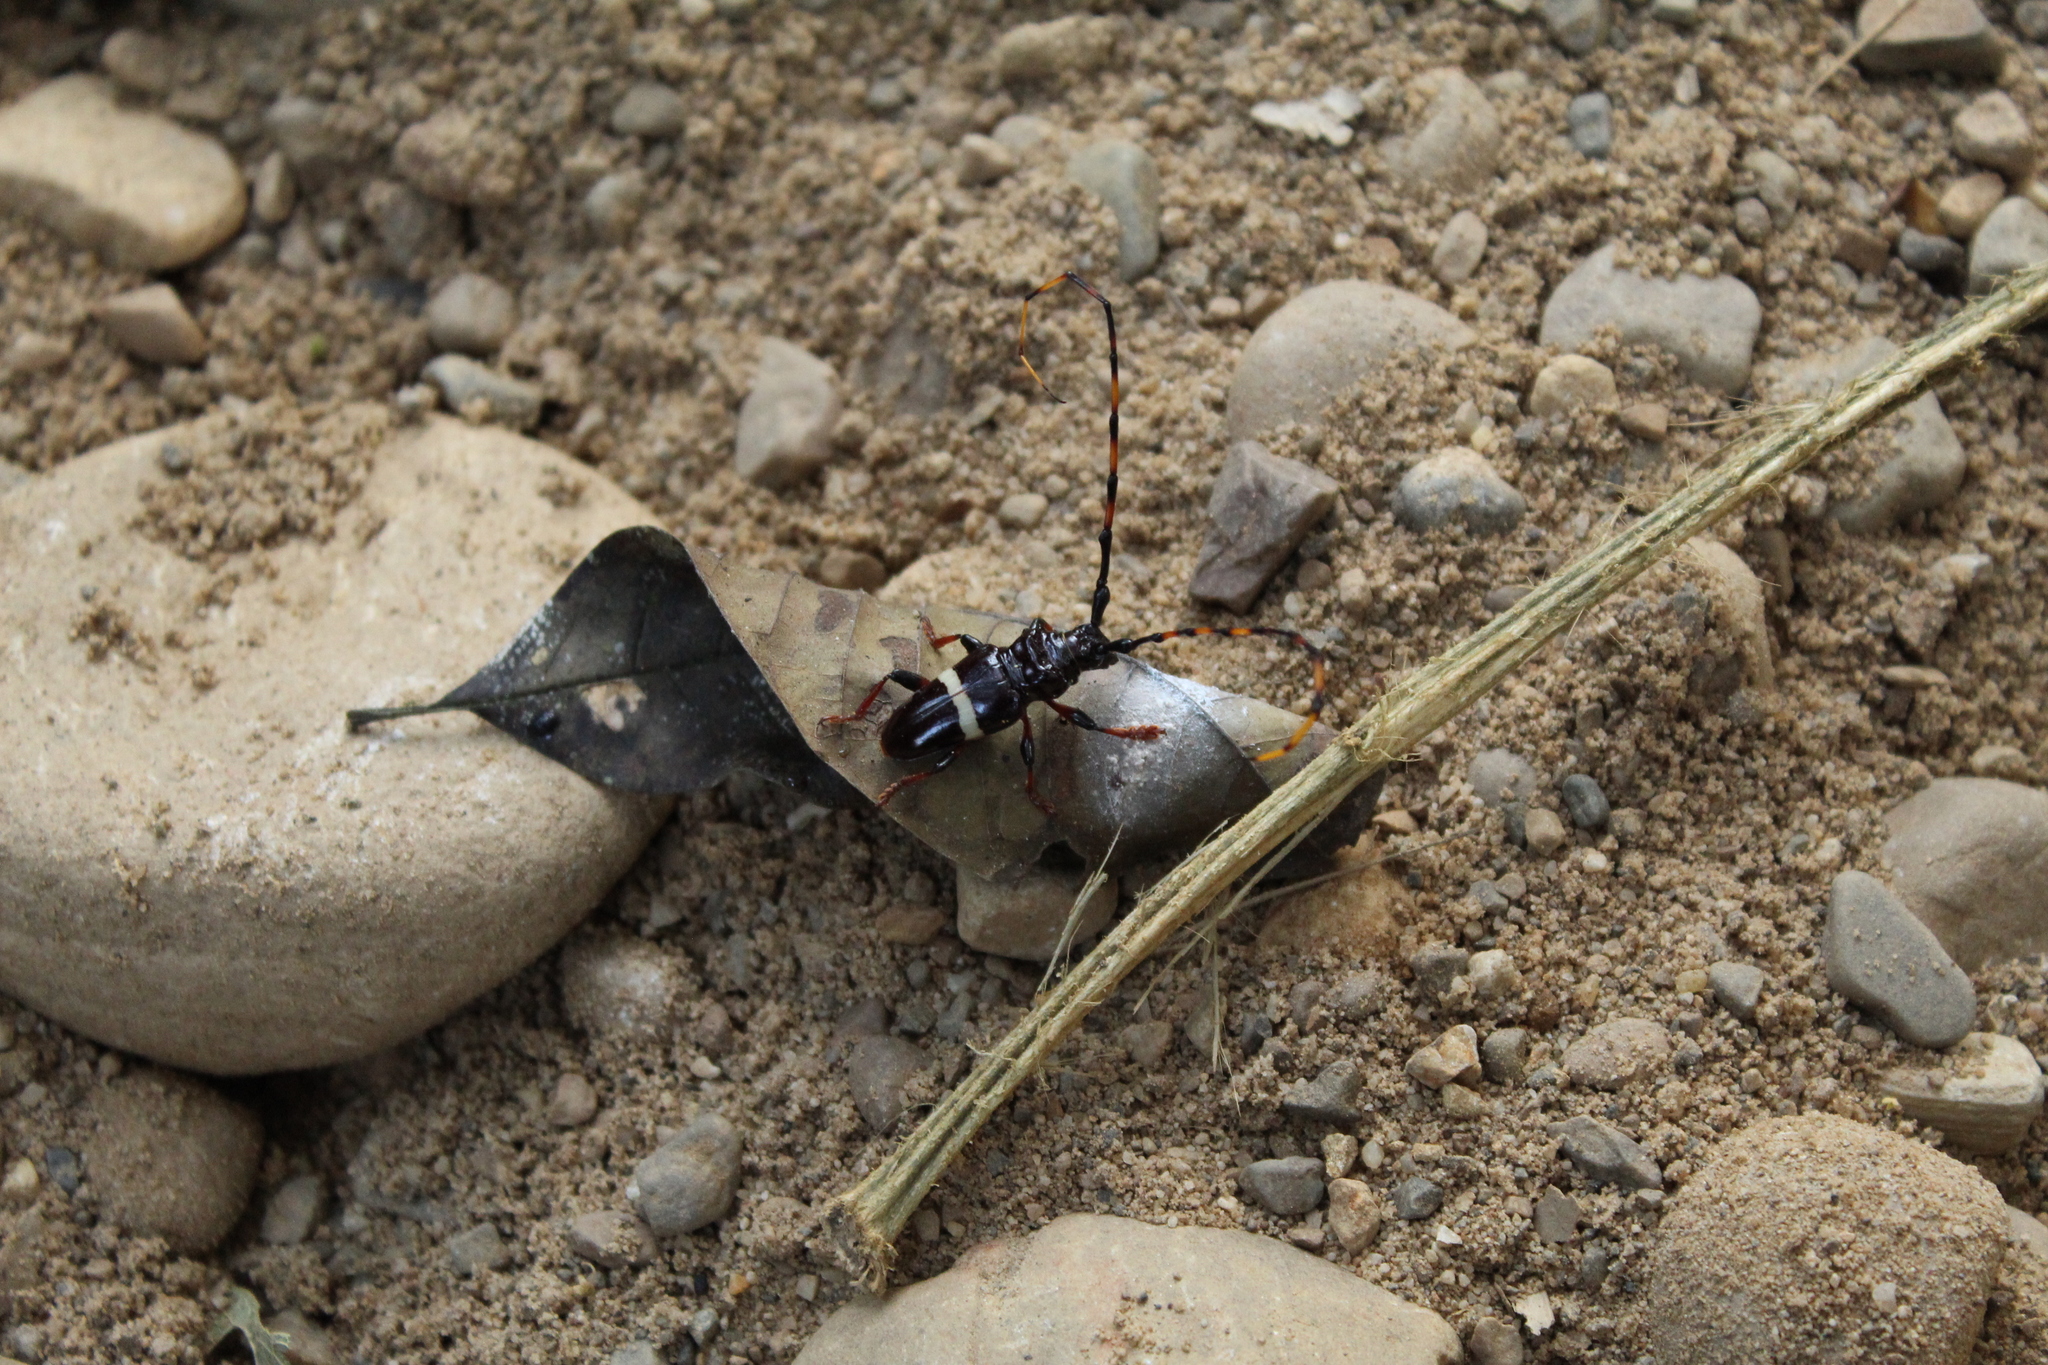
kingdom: Animalia
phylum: Arthropoda
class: Insecta
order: Coleoptera
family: Cerambycidae
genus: Trachyderes
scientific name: Trachyderes succinctus
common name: Mango longhorn
